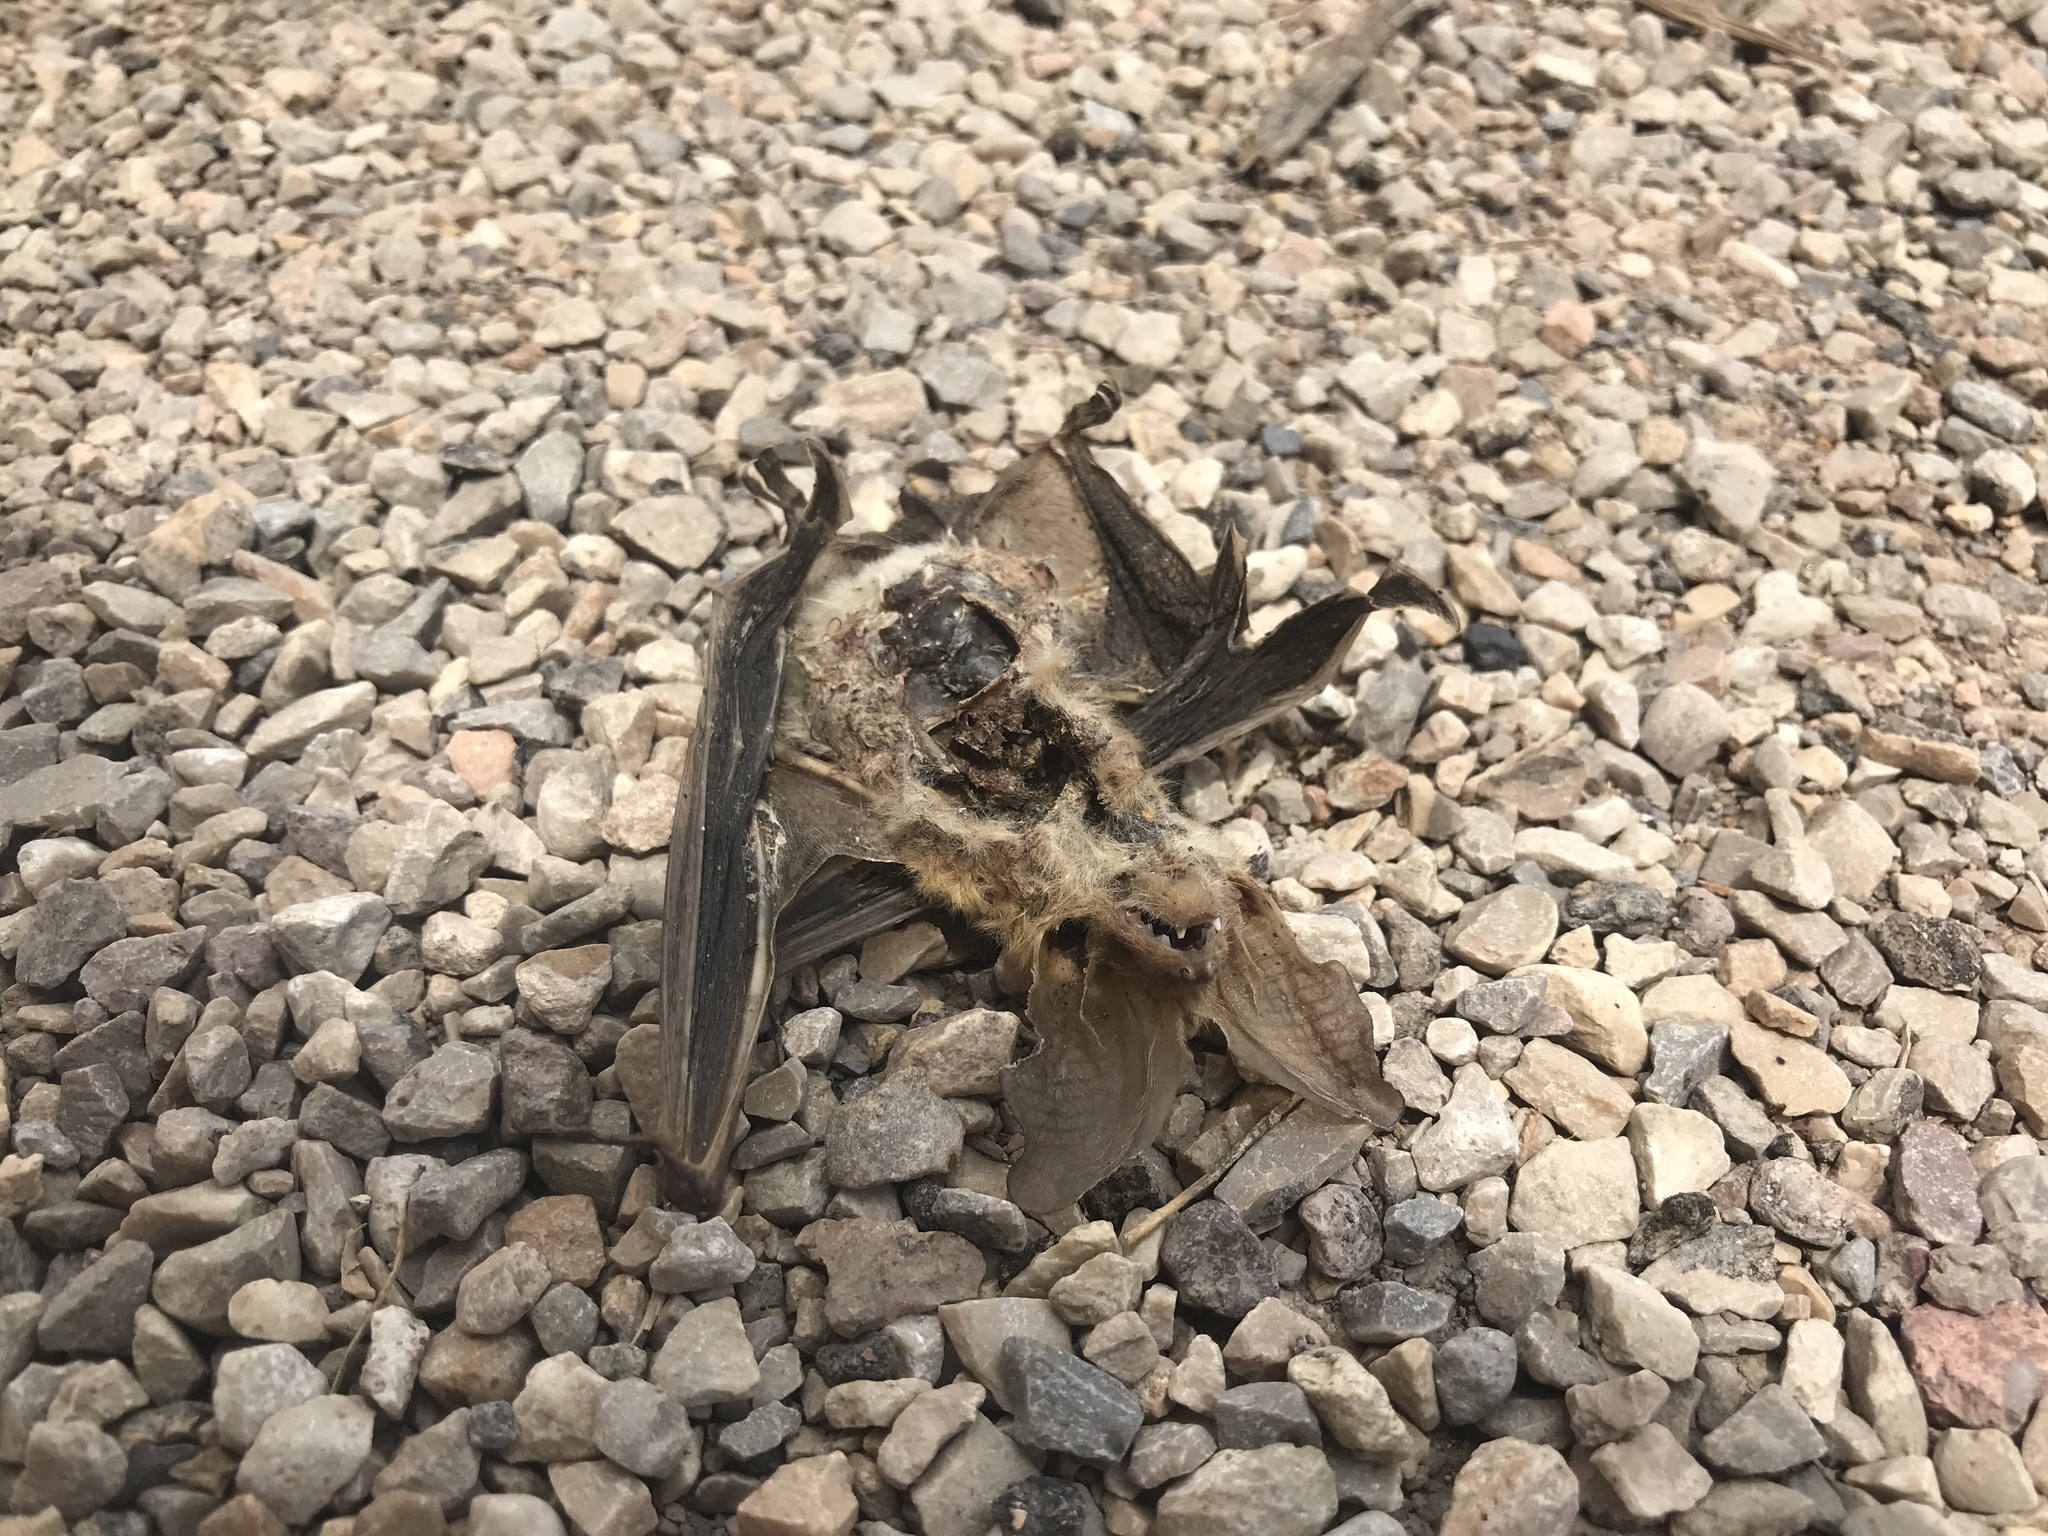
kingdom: Animalia
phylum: Chordata
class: Mammalia
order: Chiroptera
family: Vespertilionidae
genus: Antrozous
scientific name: Antrozous pallidus
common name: Pallid bat
